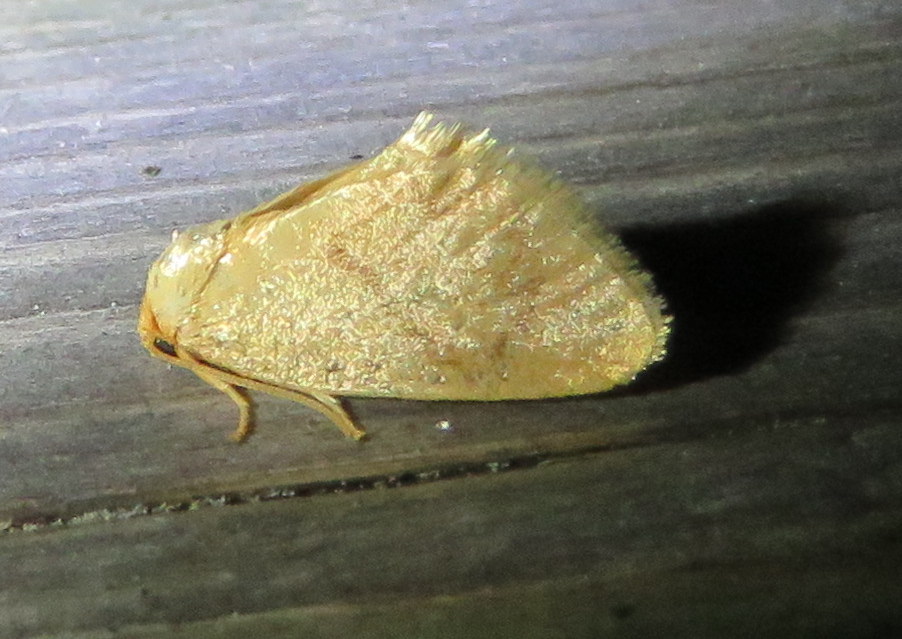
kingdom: Animalia
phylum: Arthropoda
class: Insecta
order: Lepidoptera
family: Limacodidae
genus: Tortricidia
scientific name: Tortricidia pallida
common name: Red-crossed button slug moth
